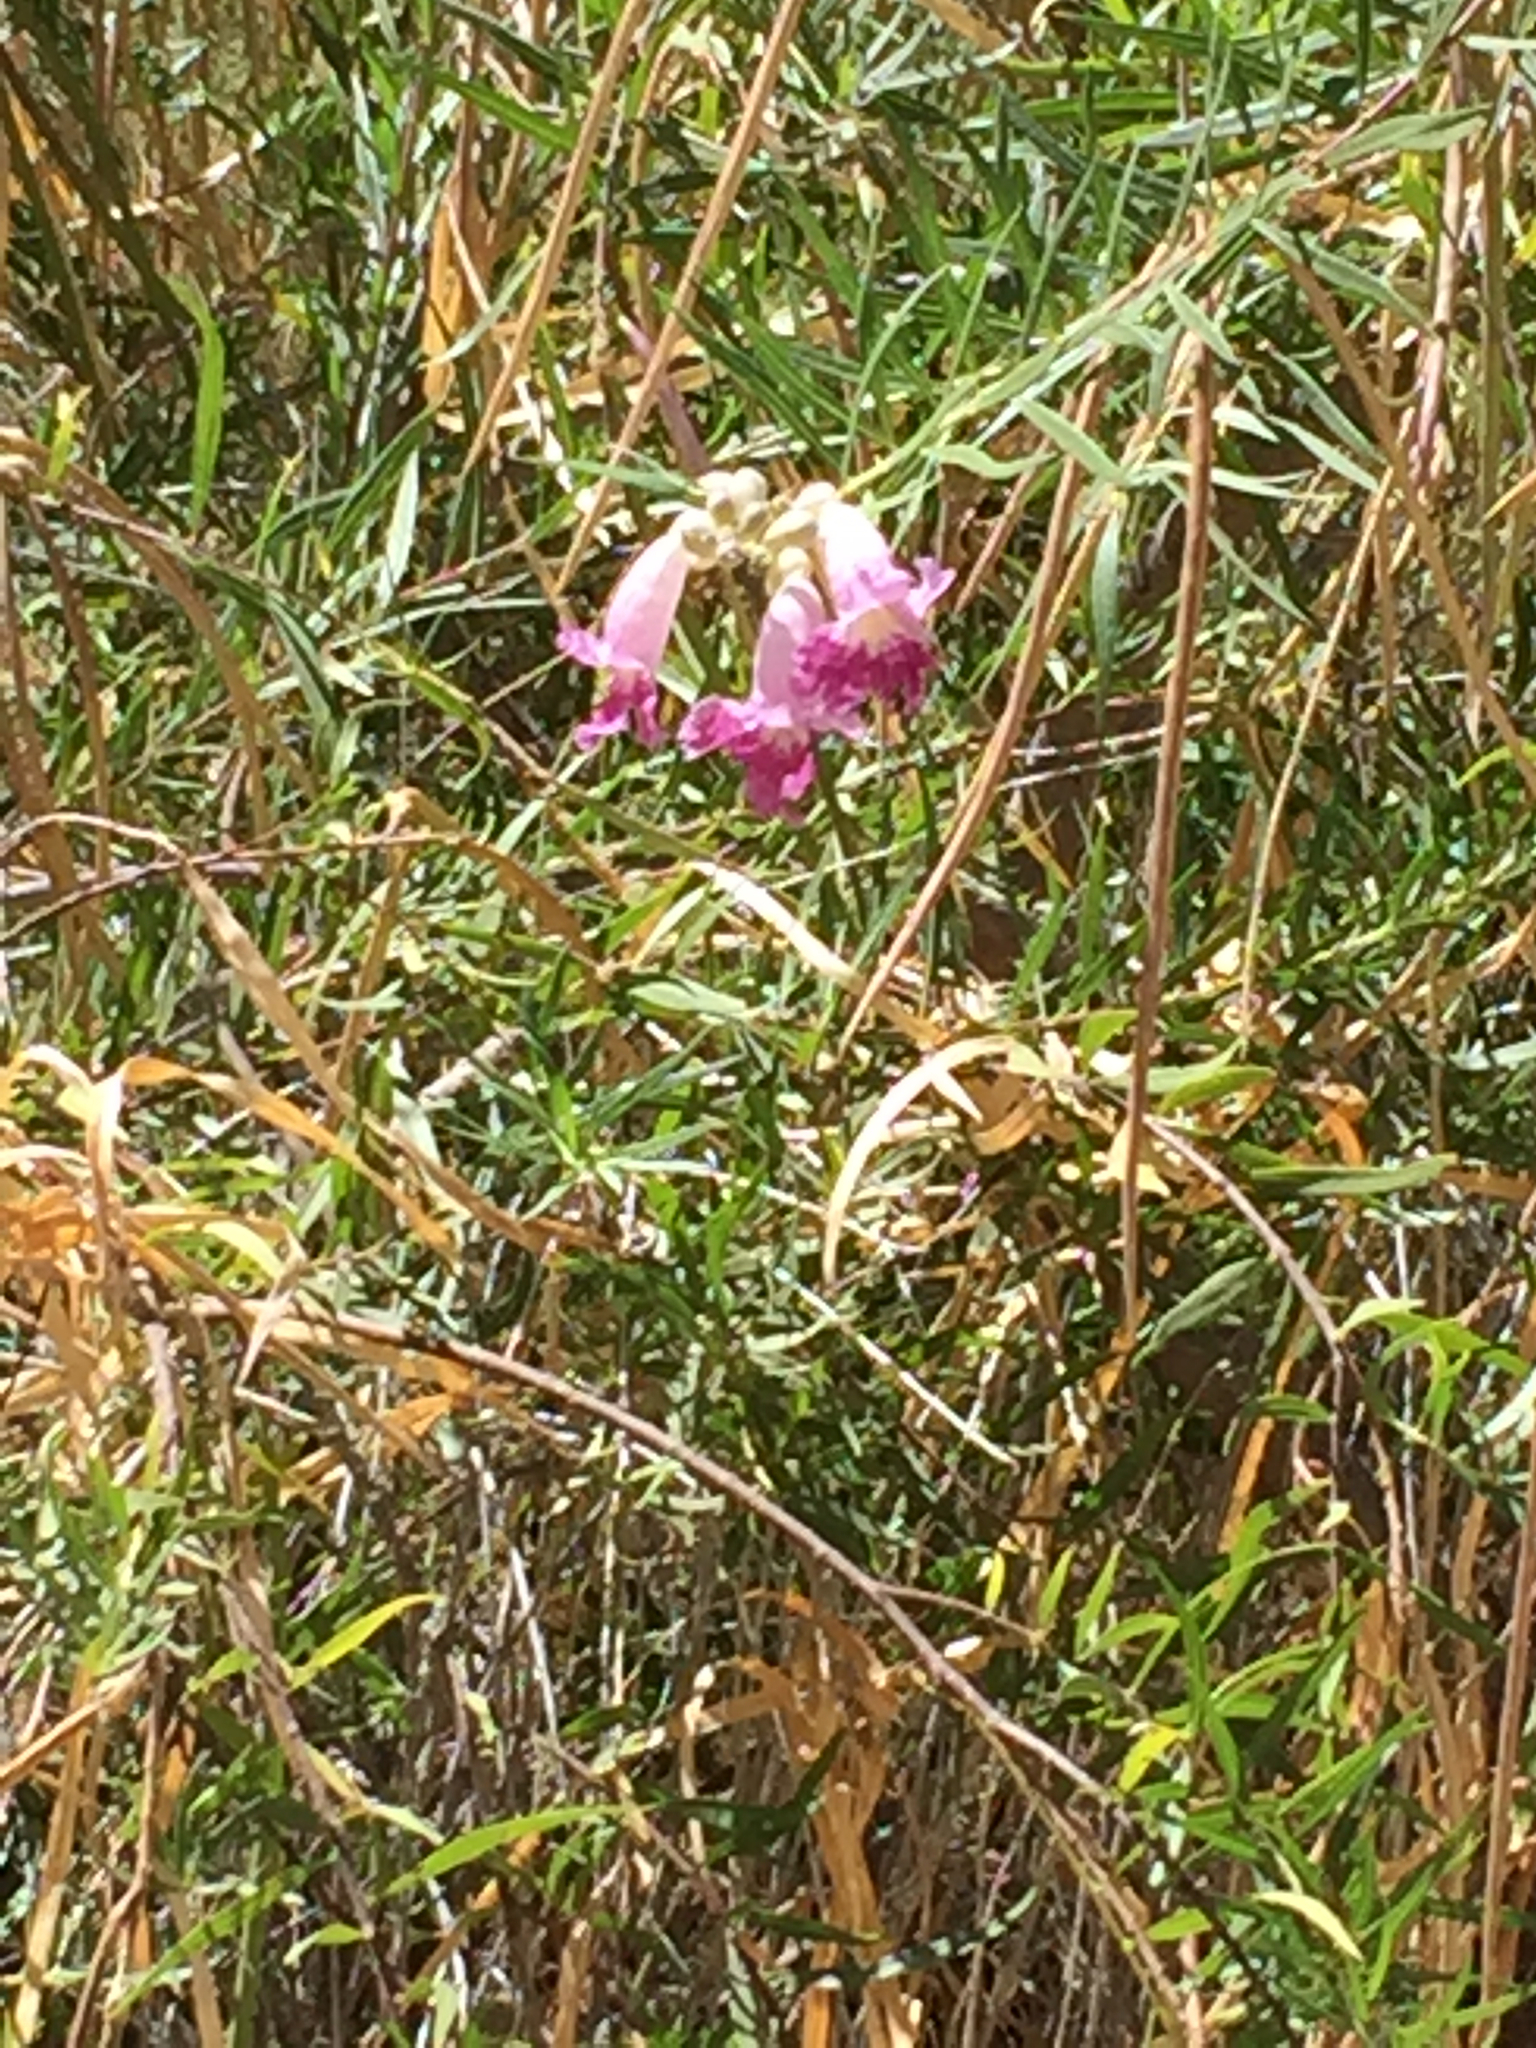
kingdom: Plantae
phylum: Tracheophyta
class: Magnoliopsida
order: Lamiales
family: Bignoniaceae
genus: Chilopsis
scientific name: Chilopsis linearis
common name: Desert-willow
